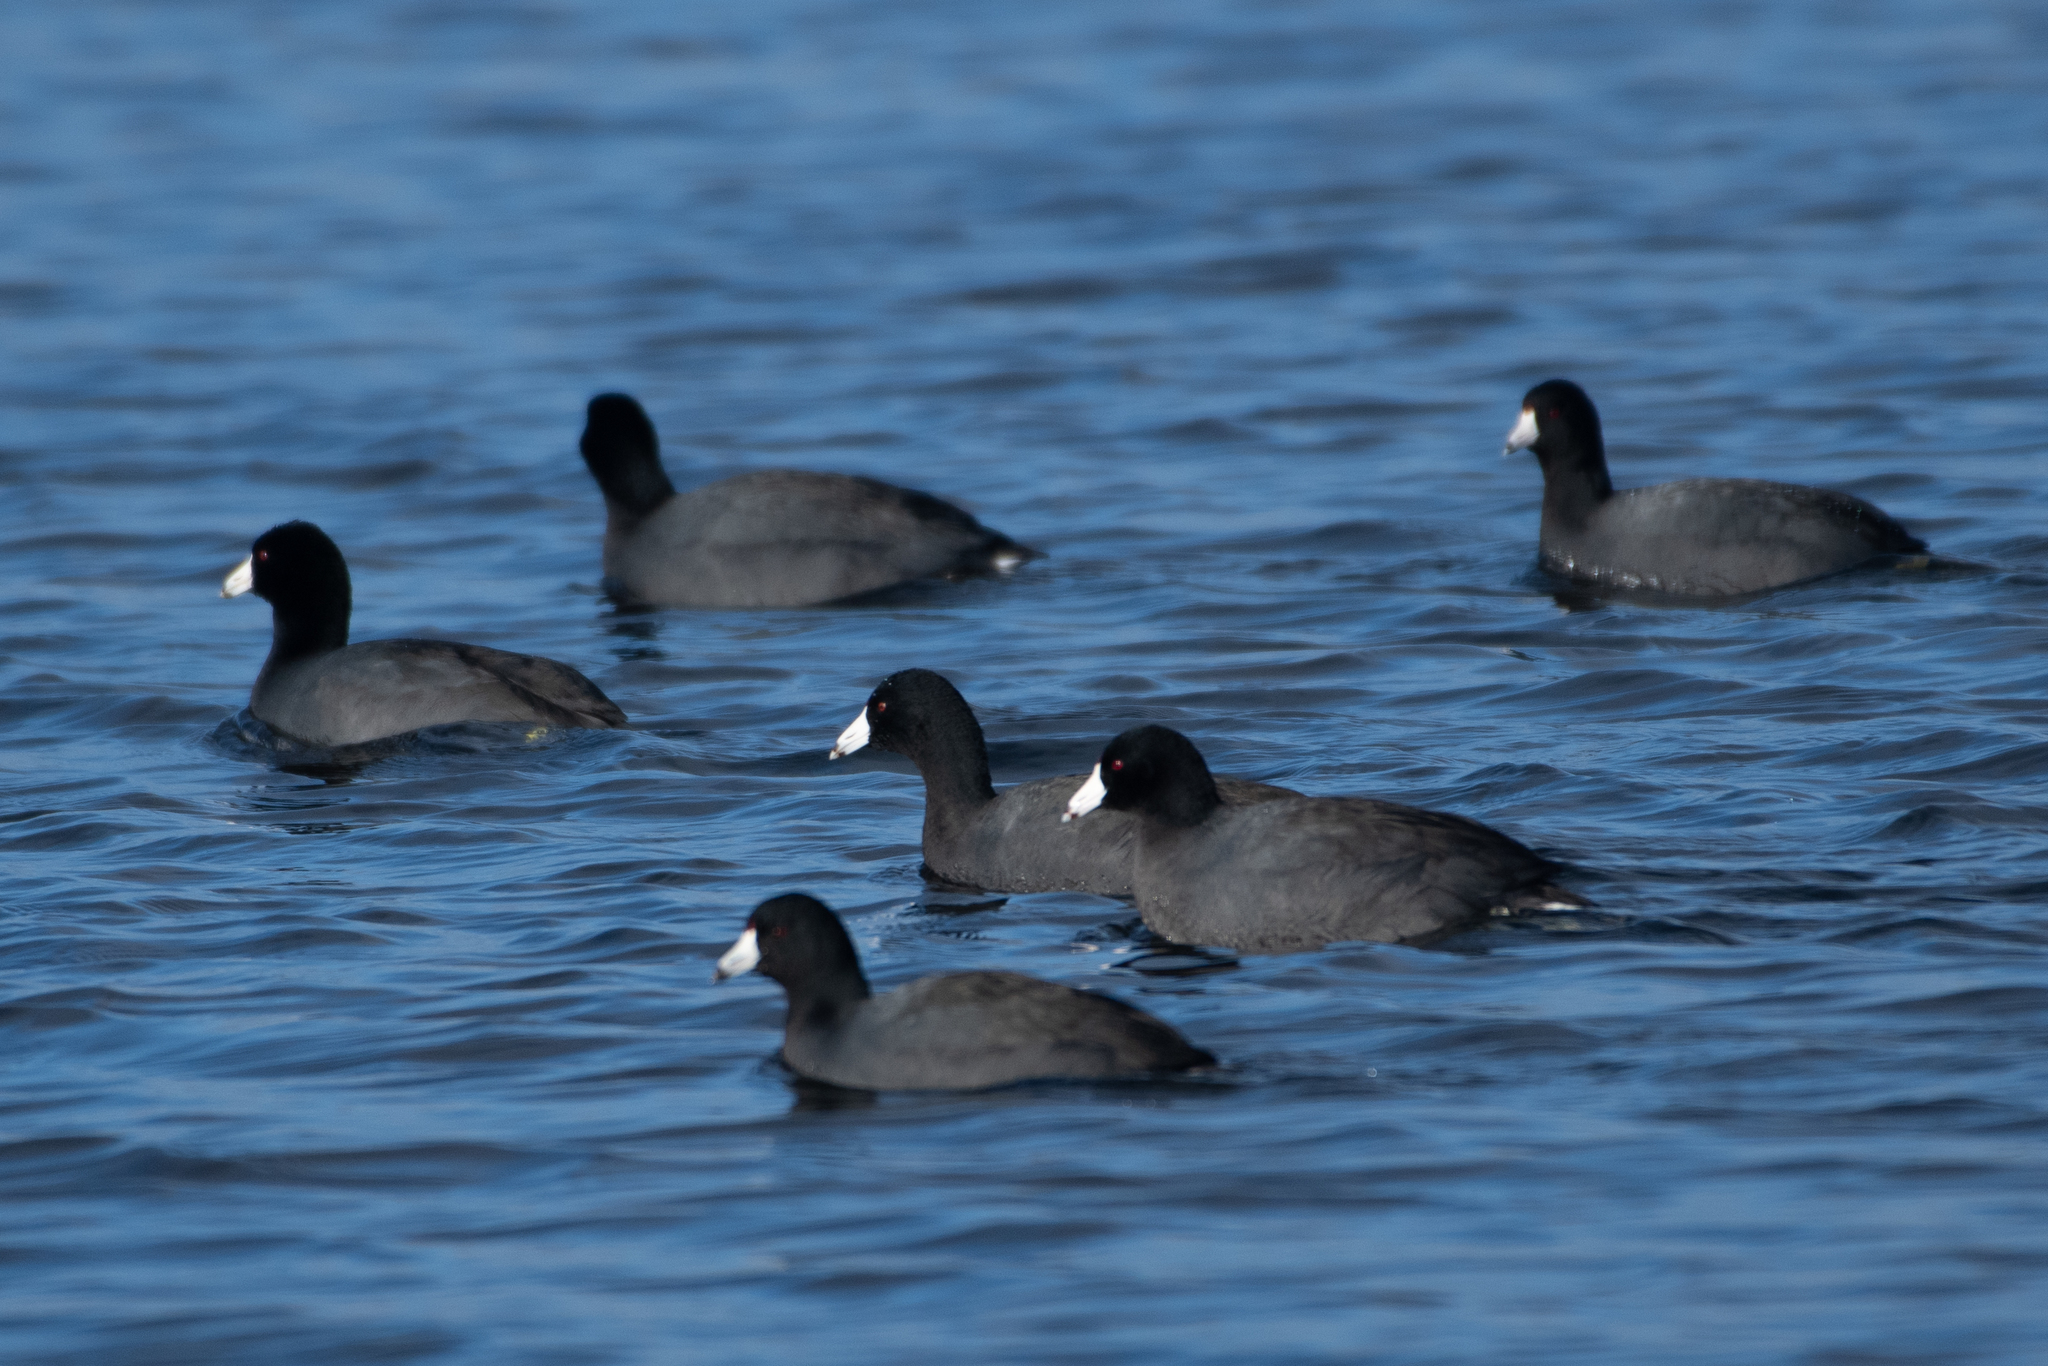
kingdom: Animalia
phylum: Chordata
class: Aves
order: Gruiformes
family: Rallidae
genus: Fulica
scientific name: Fulica americana
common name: American coot
